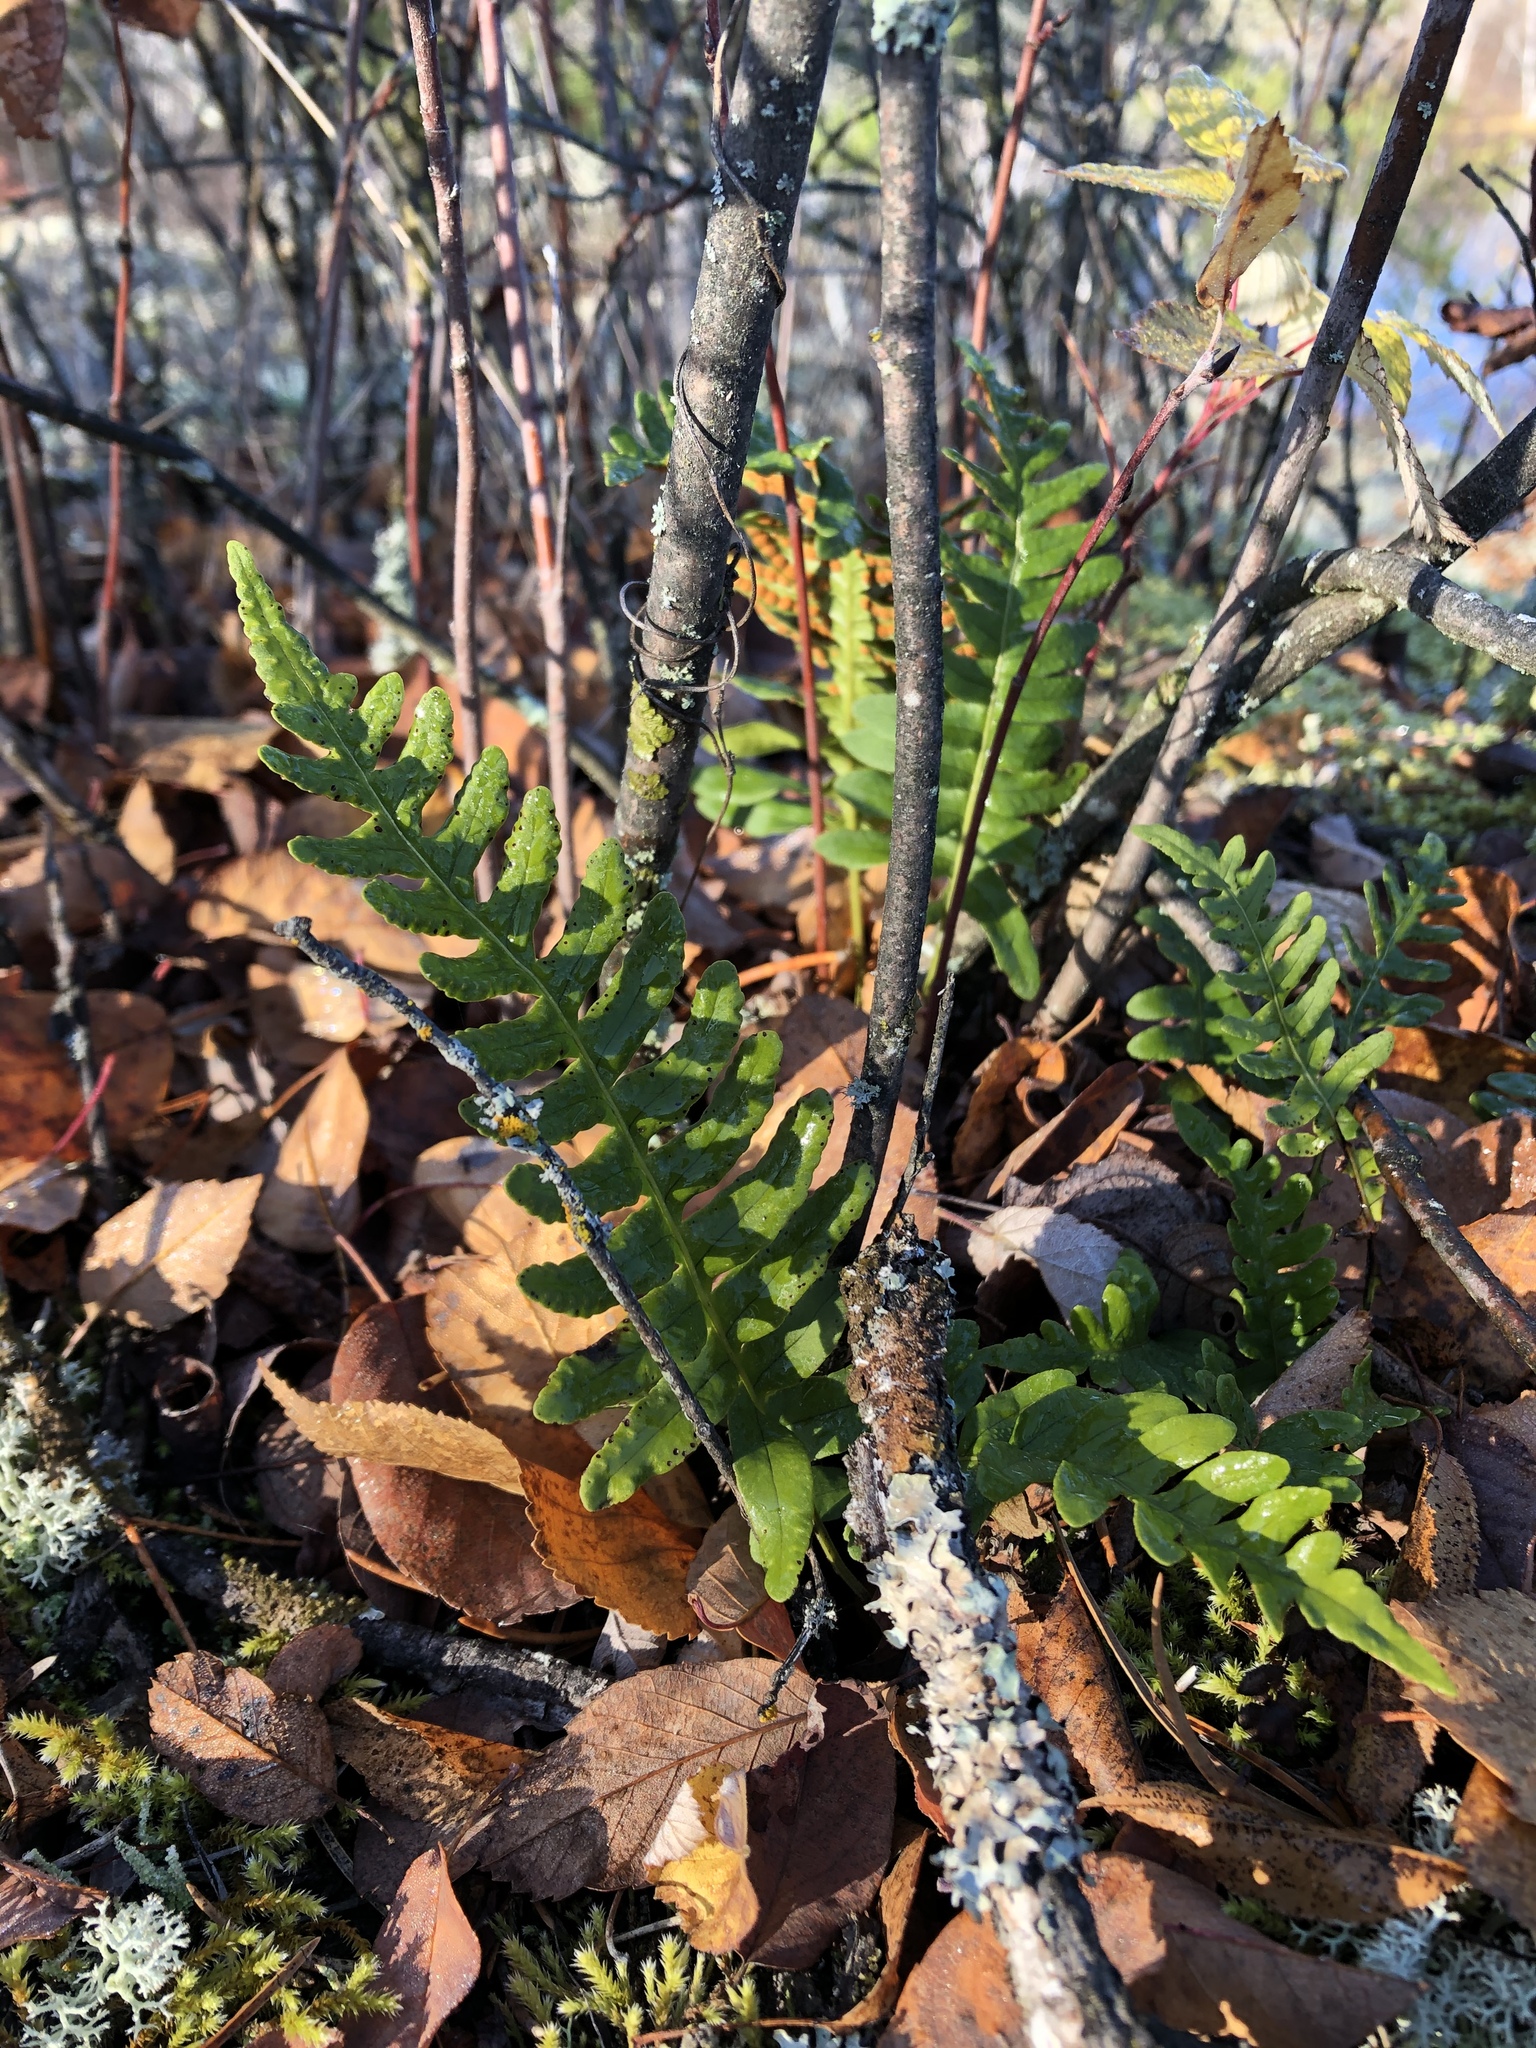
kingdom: Plantae
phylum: Tracheophyta
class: Polypodiopsida
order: Polypodiales
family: Polypodiaceae
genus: Polypodium
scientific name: Polypodium virginianum
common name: American wall fern
